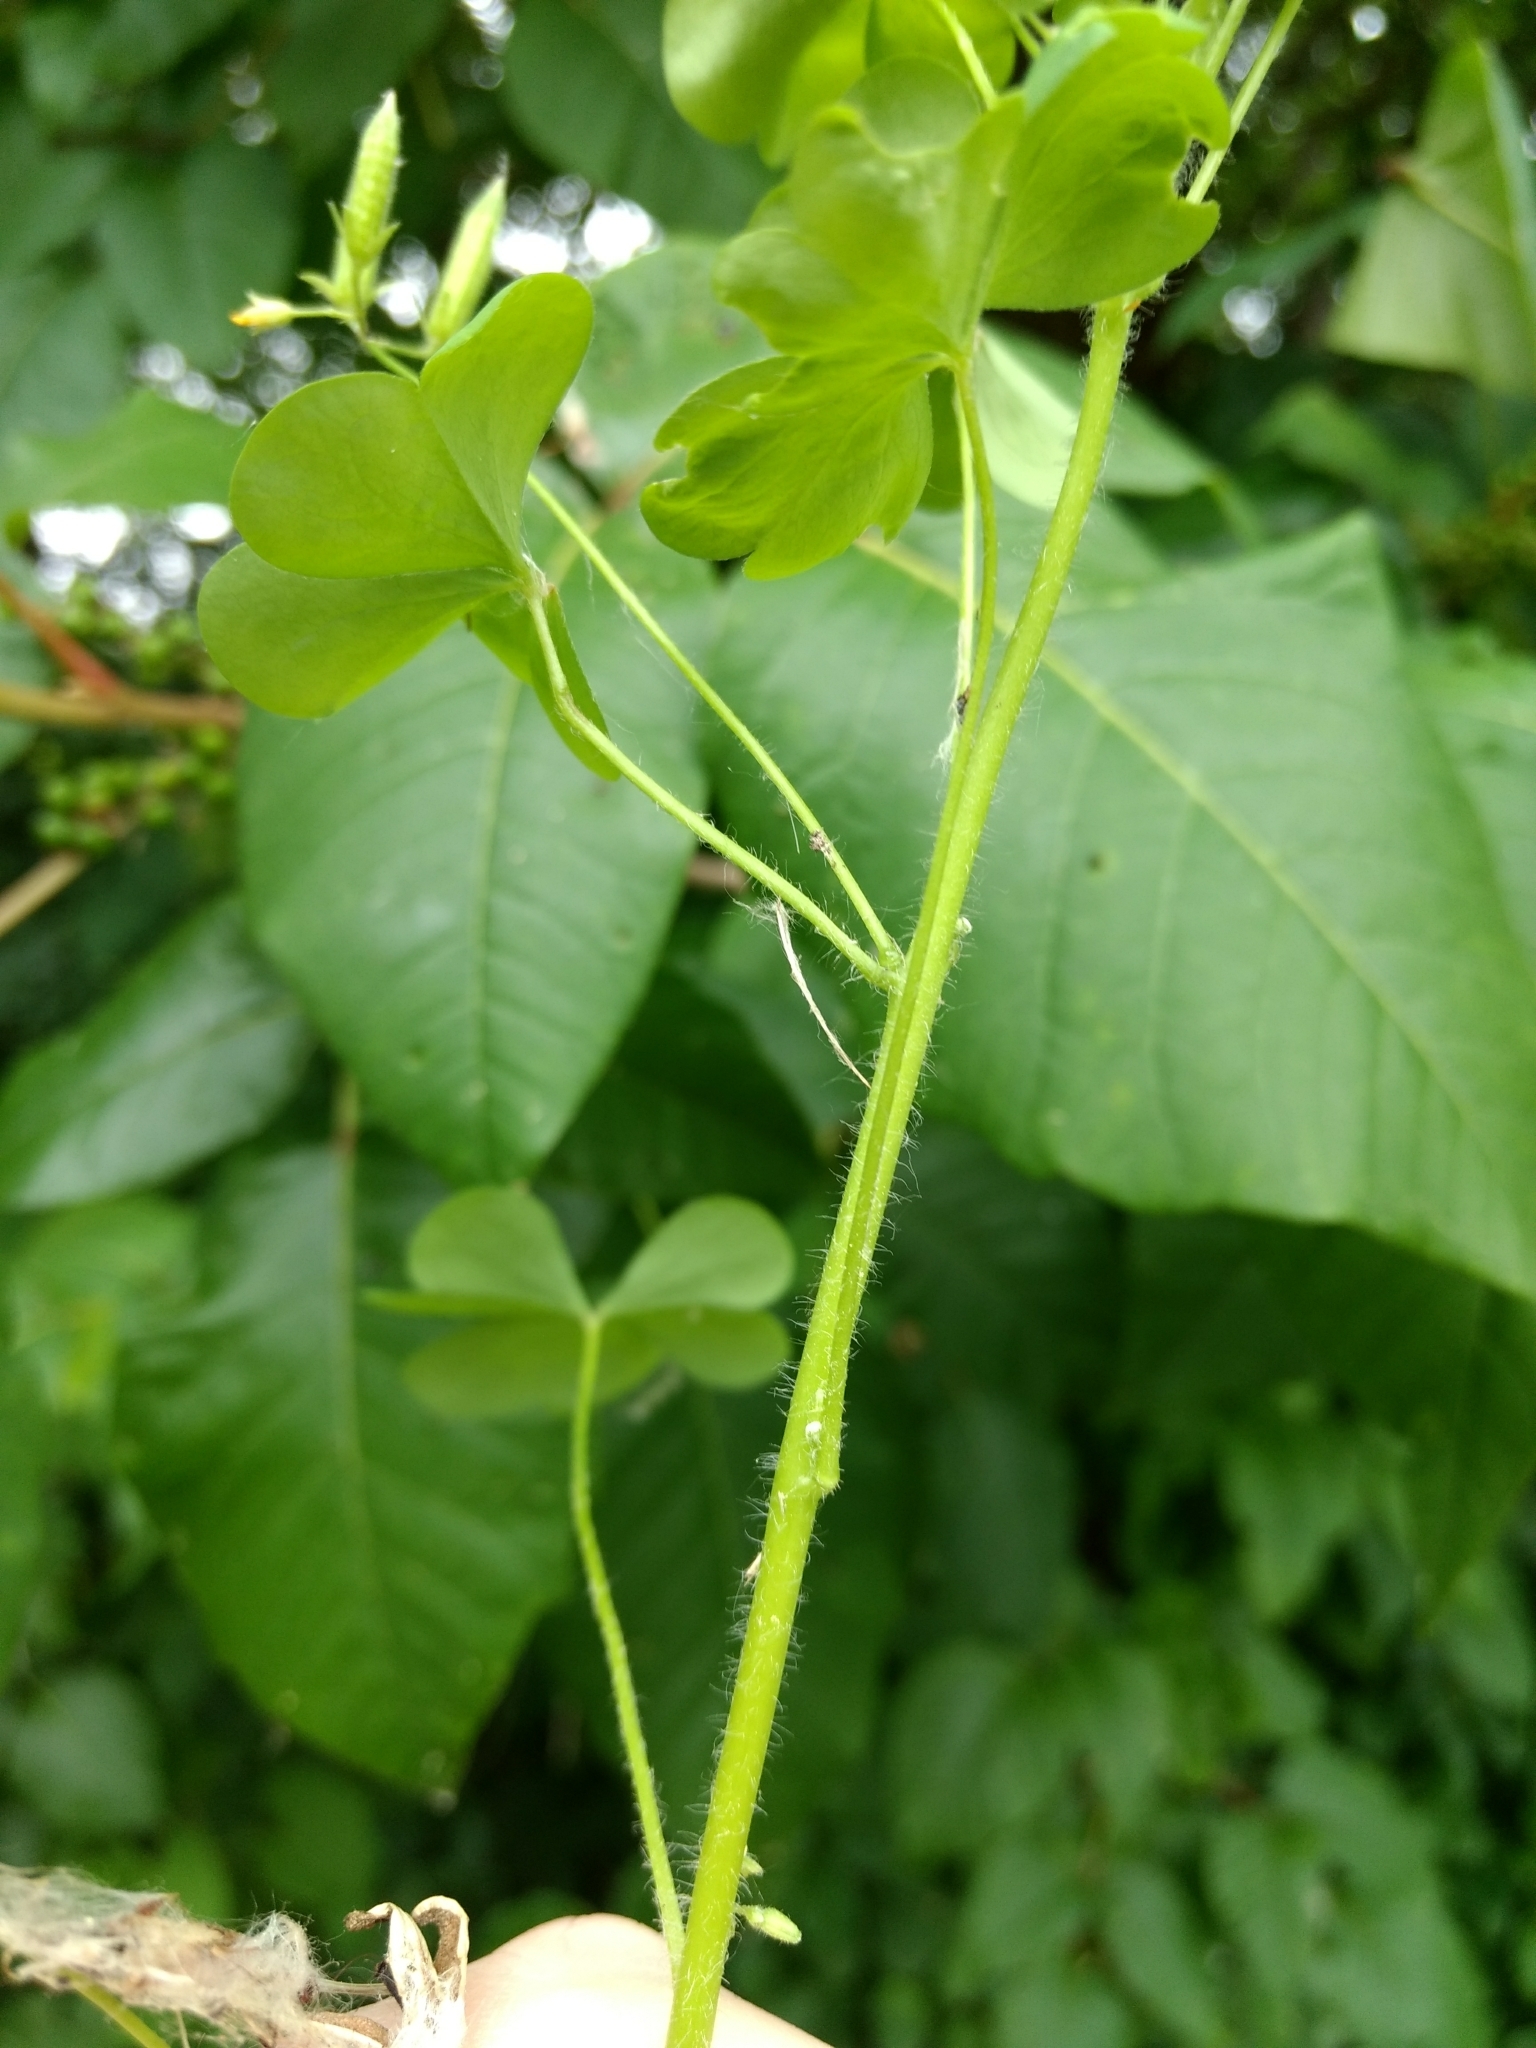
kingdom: Plantae
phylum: Tracheophyta
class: Magnoliopsida
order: Oxalidales
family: Oxalidaceae
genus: Oxalis
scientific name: Oxalis stricta
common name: Upright yellow-sorrel
